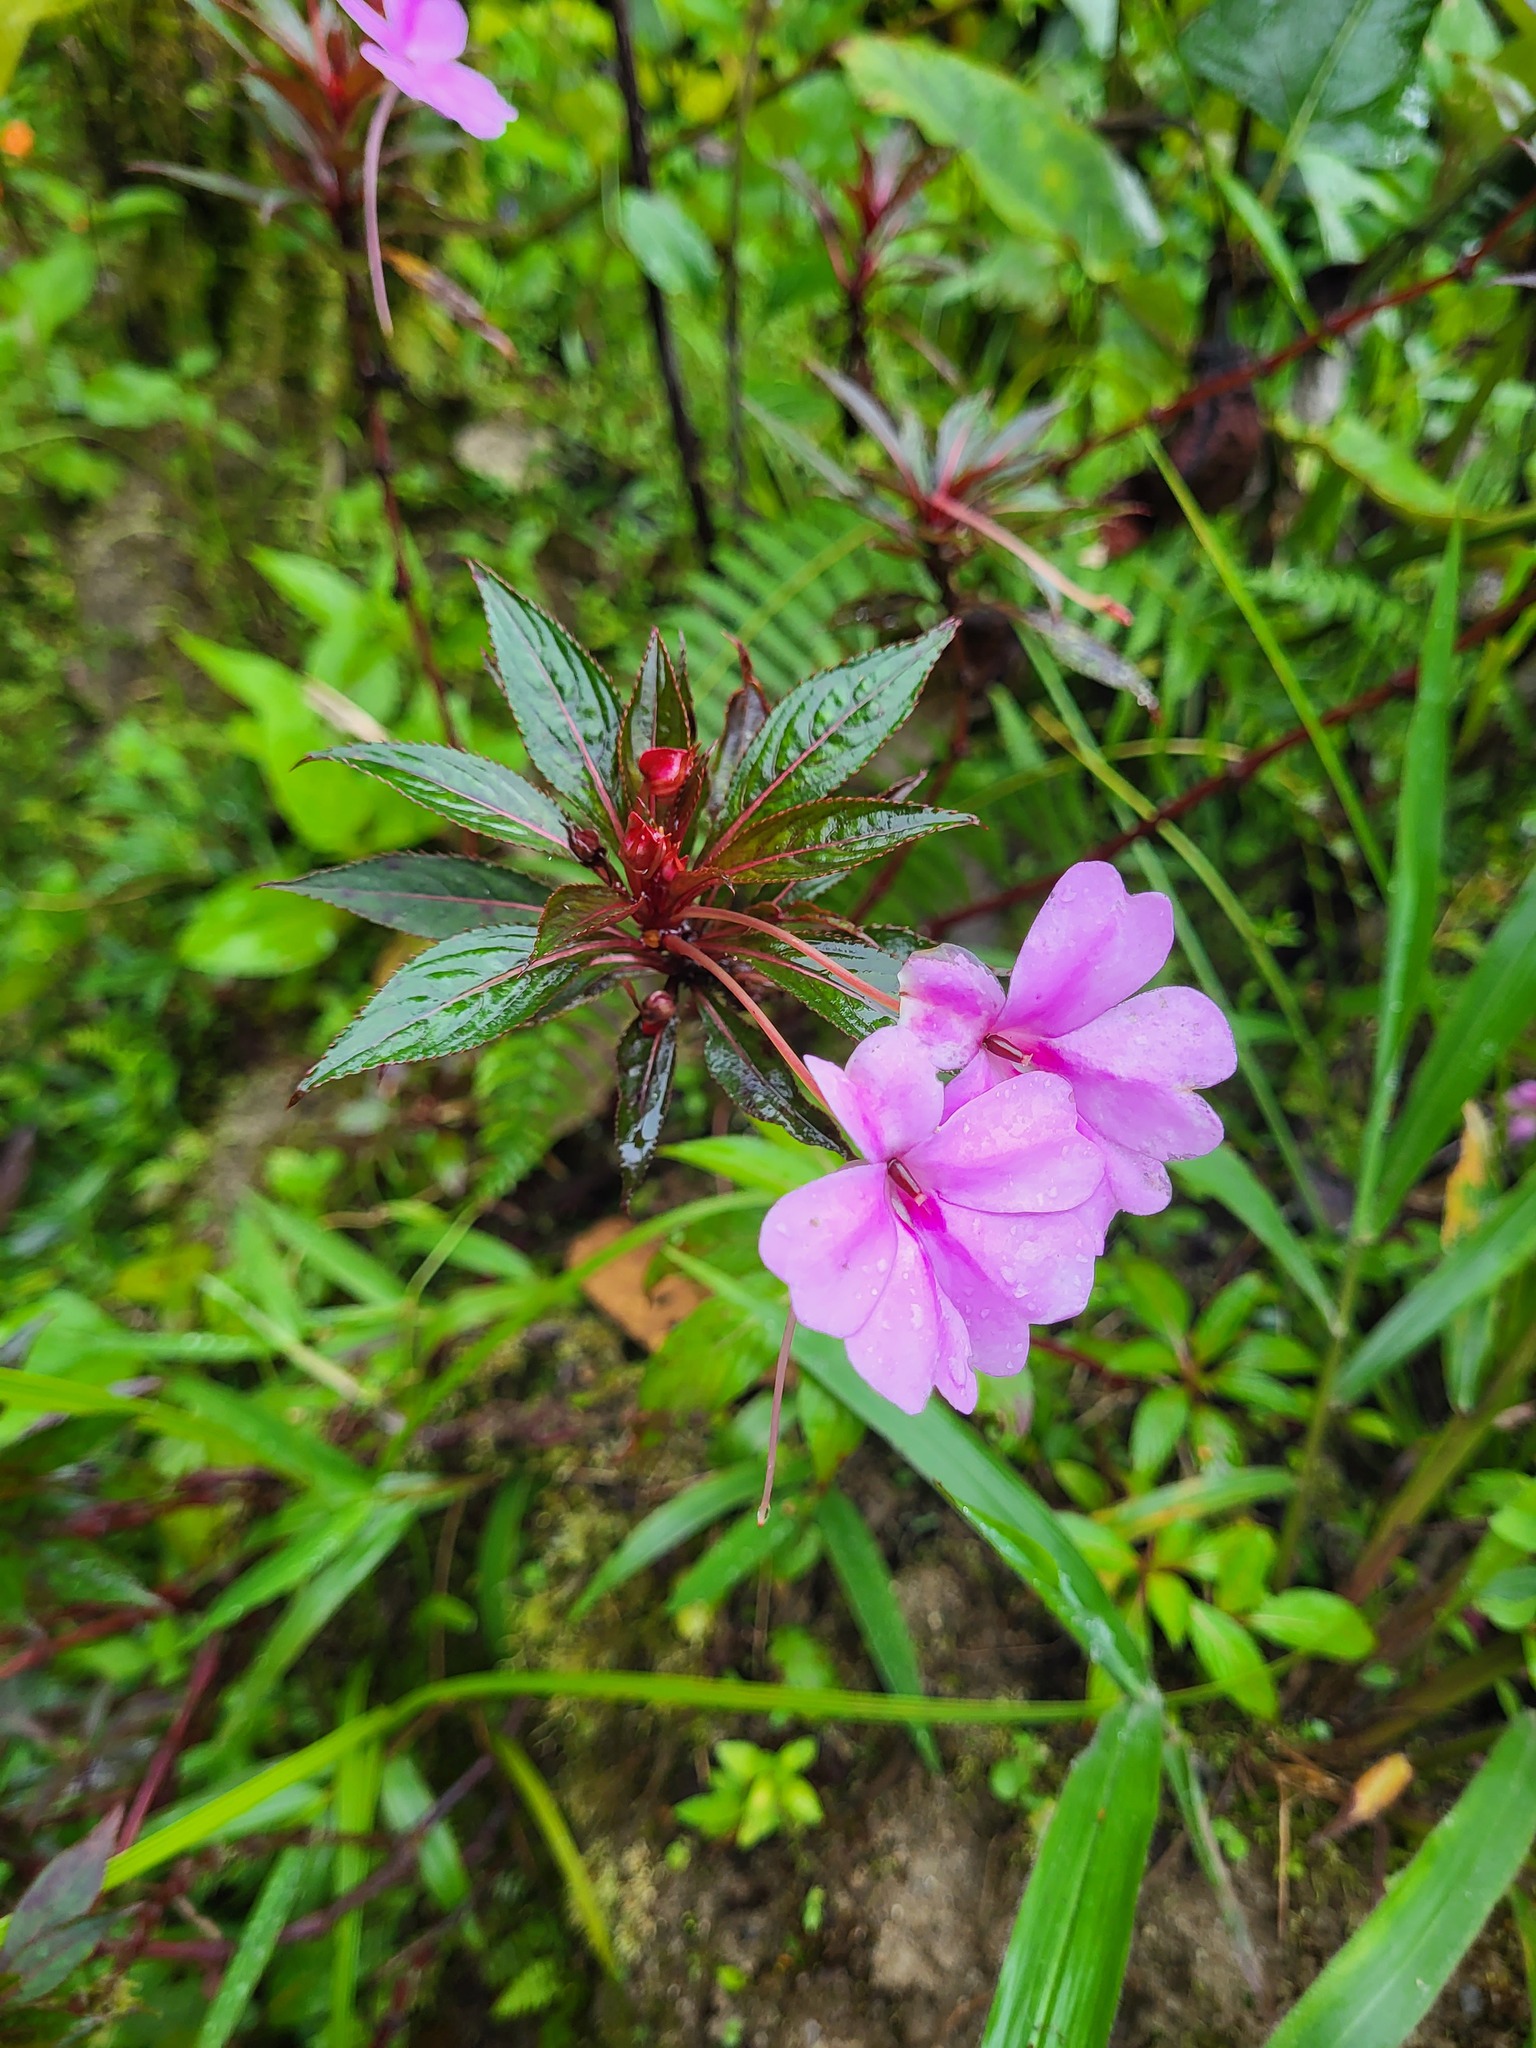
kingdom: Plantae
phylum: Tracheophyta
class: Magnoliopsida
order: Ericales
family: Balsaminaceae
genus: Impatiens
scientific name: Impatiens hawkeri
